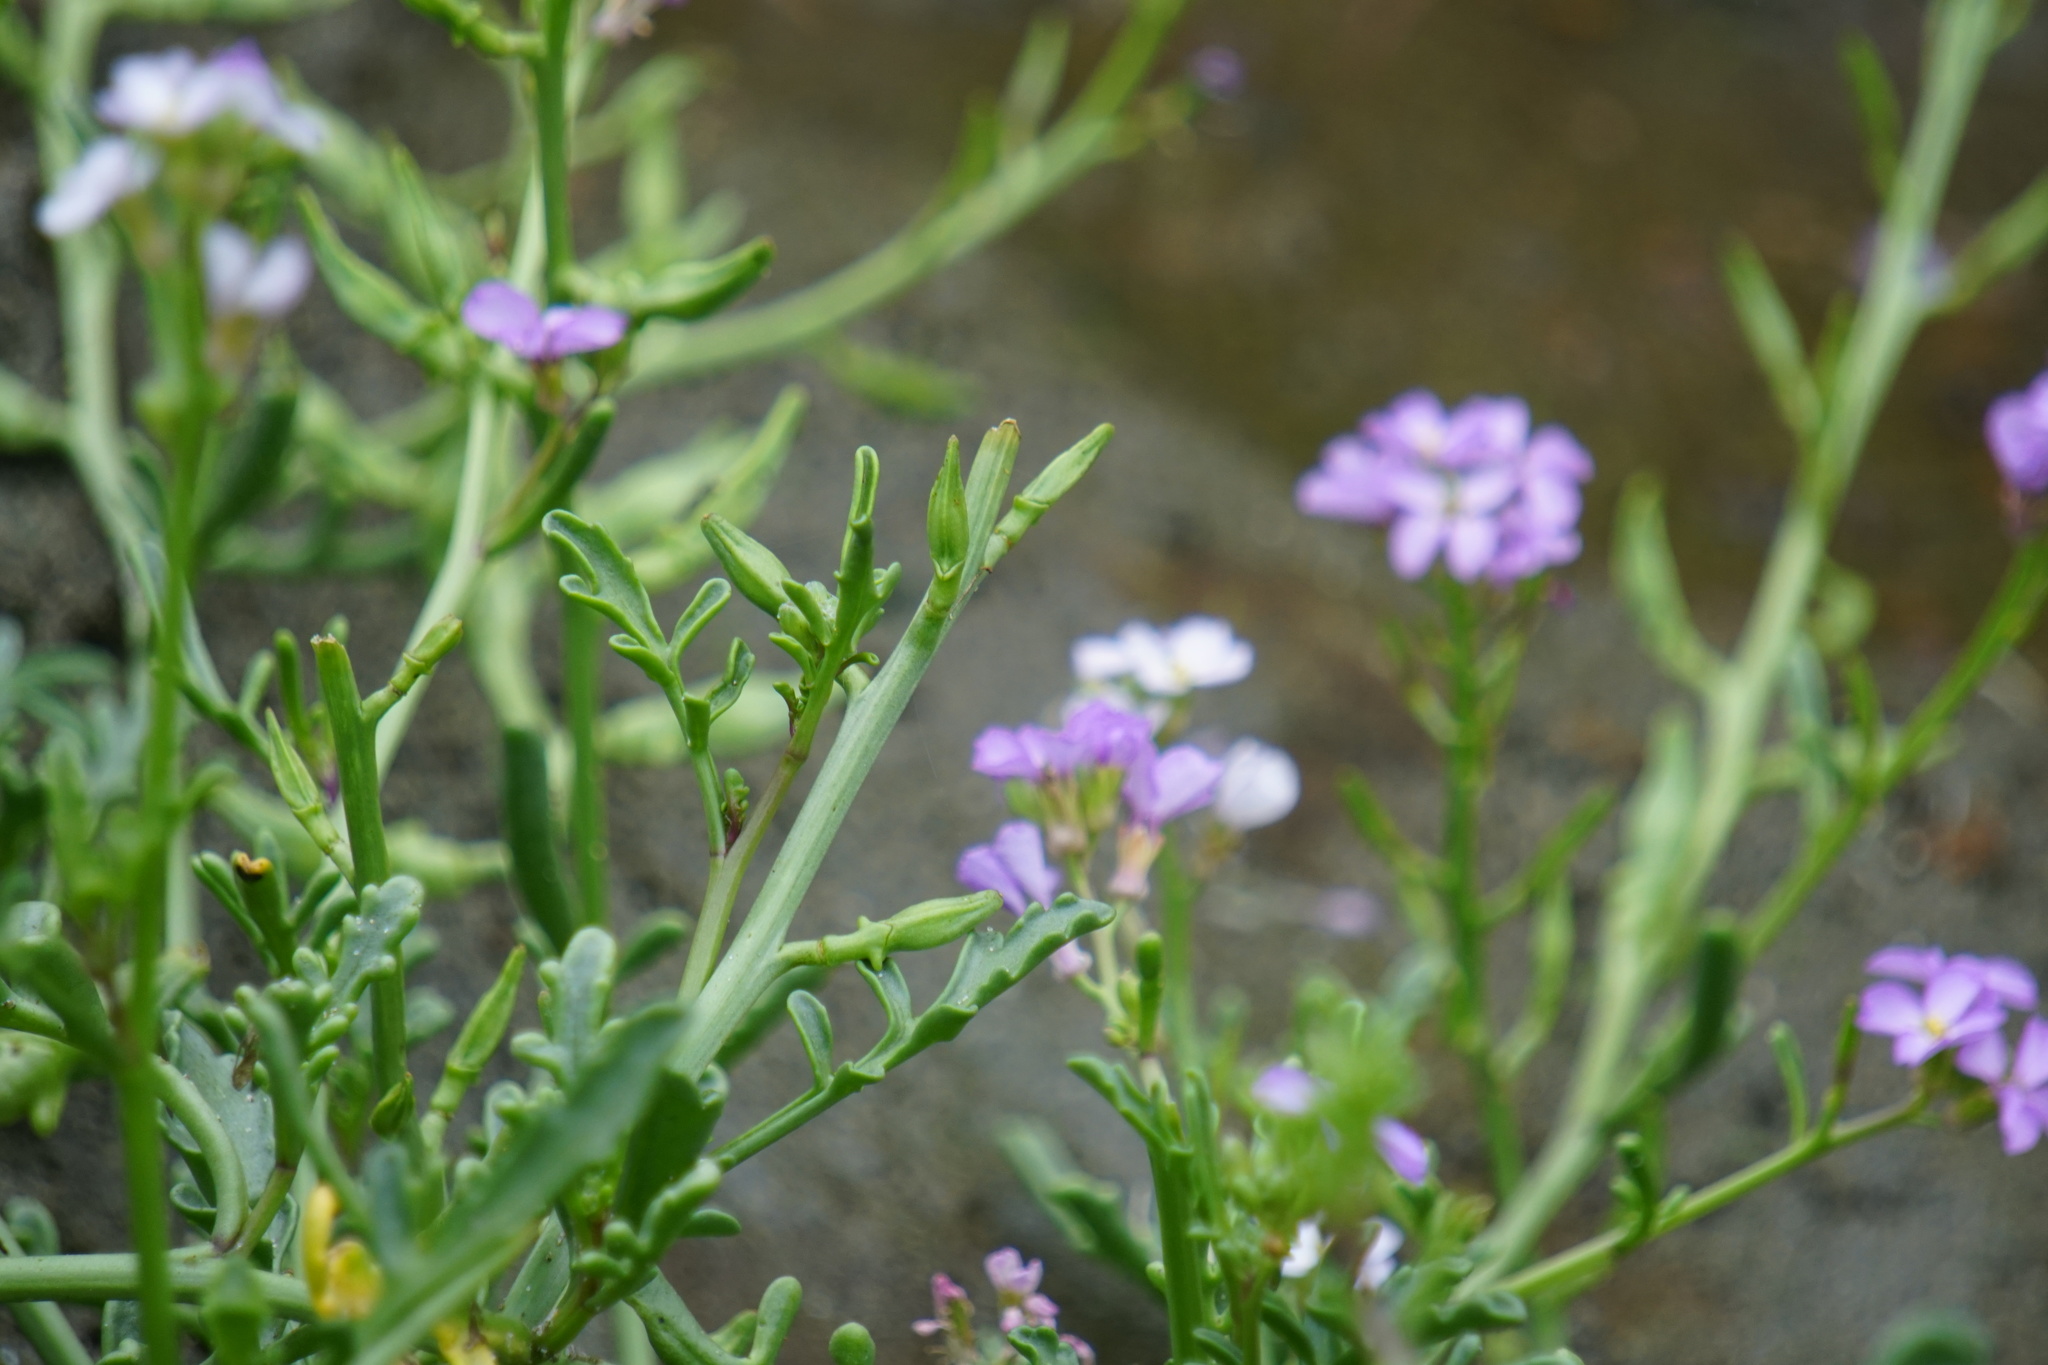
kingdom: Plantae
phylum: Tracheophyta
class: Magnoliopsida
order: Brassicales
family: Brassicaceae
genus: Cakile
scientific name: Cakile maritima
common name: Sea rocket
